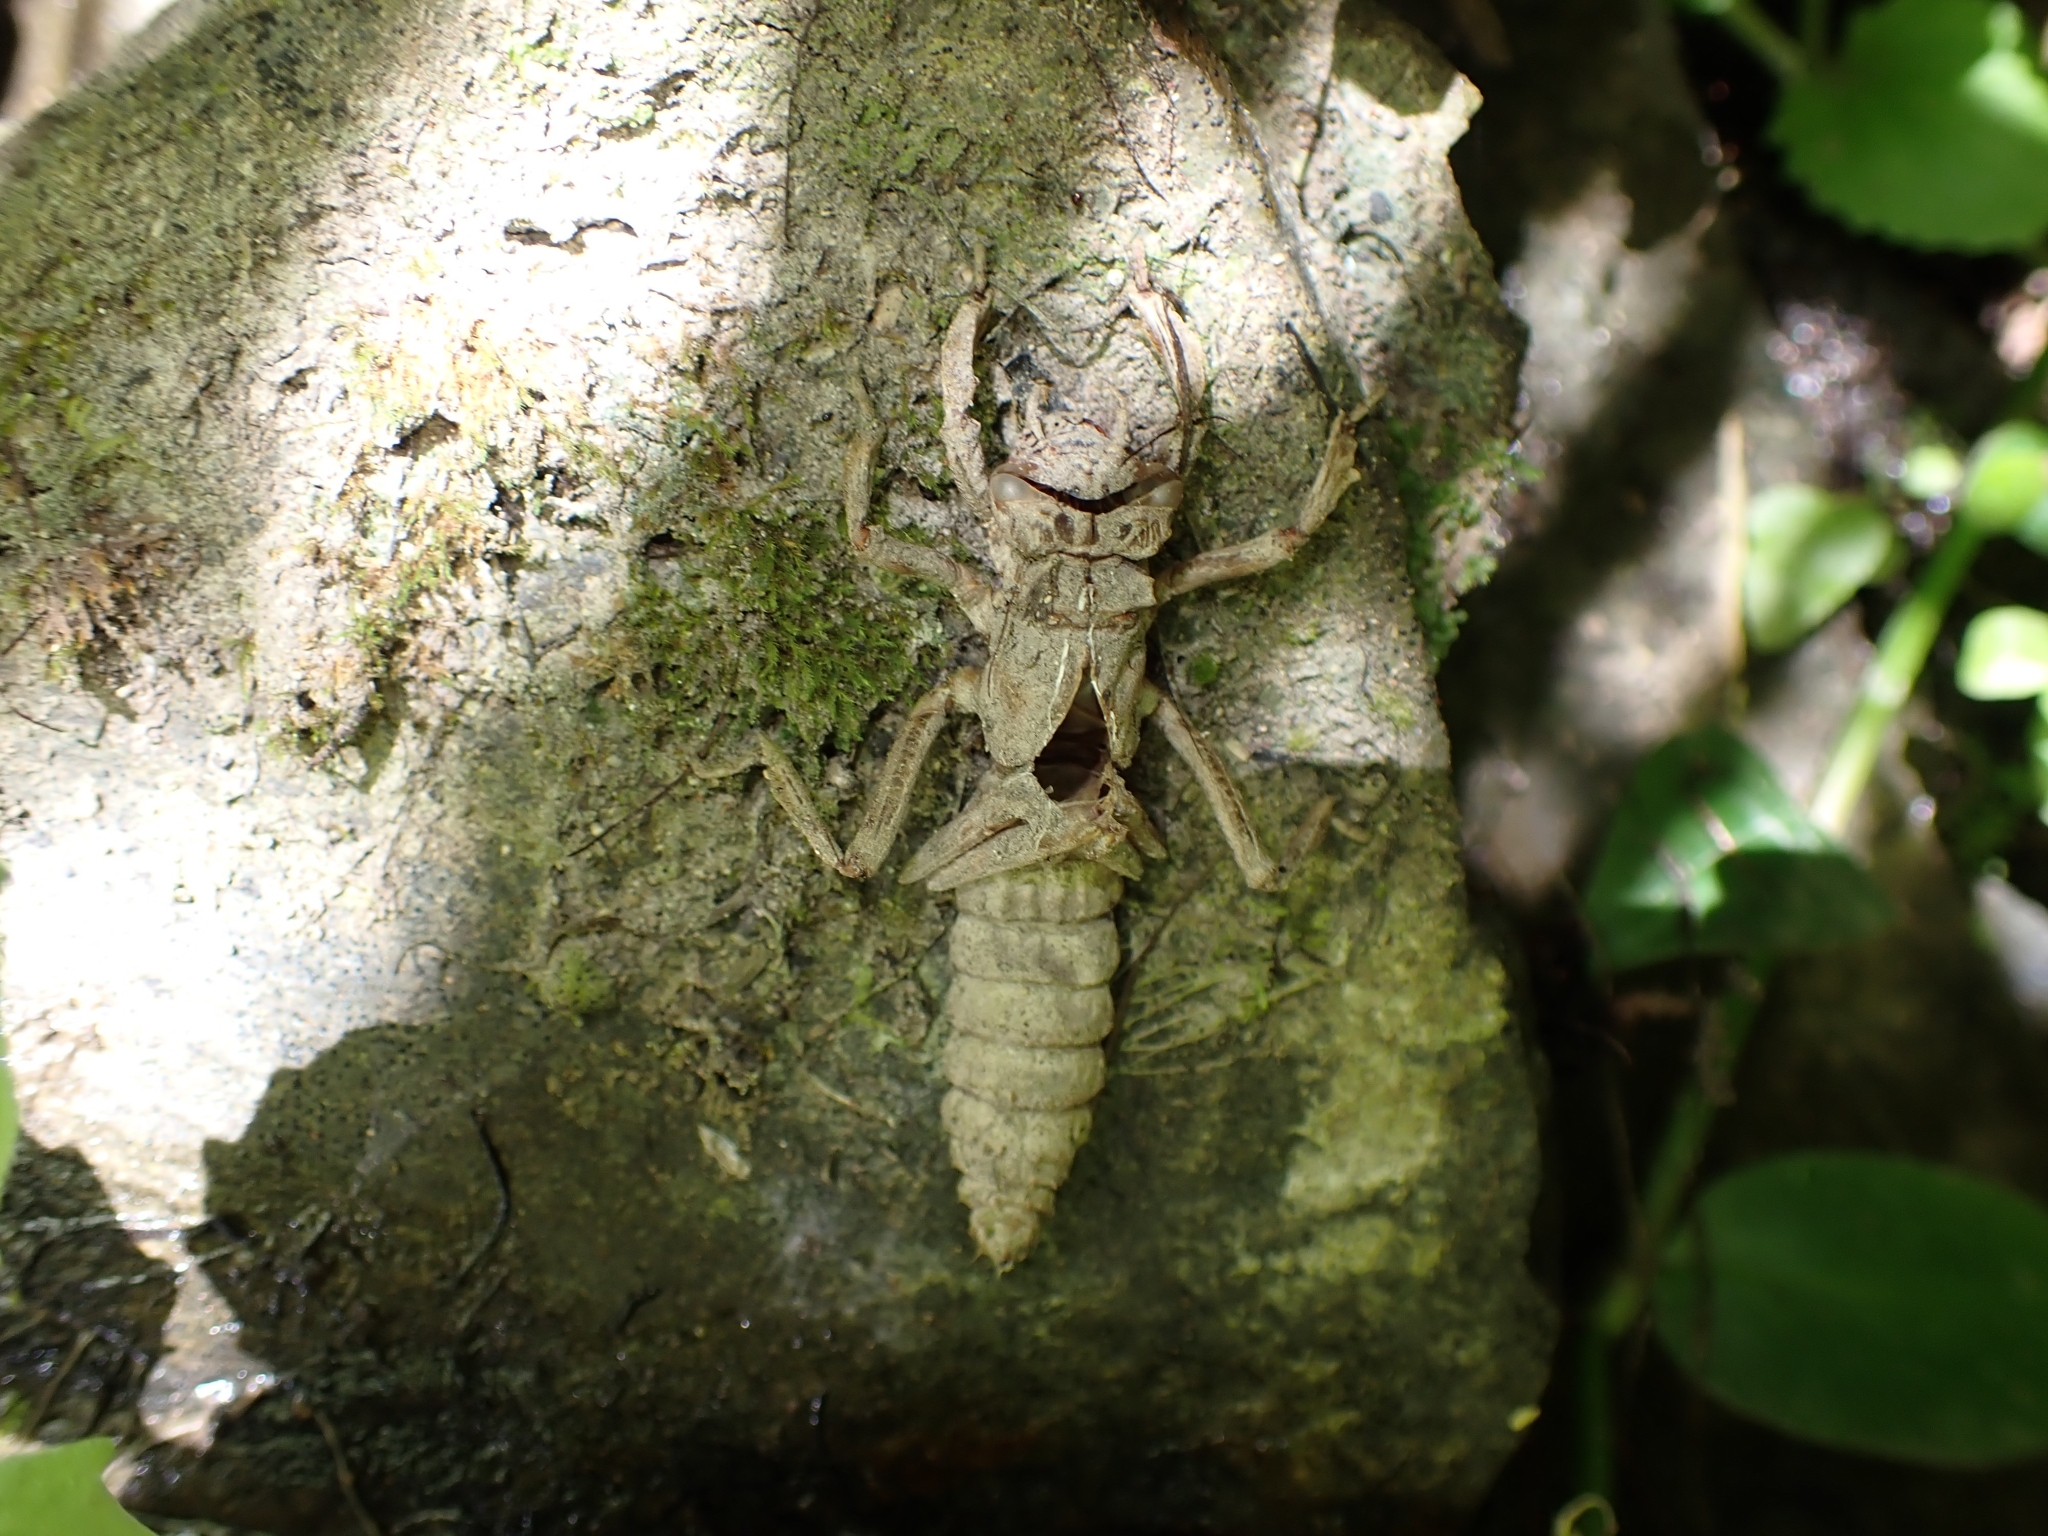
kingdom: Animalia
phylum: Arthropoda
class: Insecta
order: Odonata
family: Petaluridae
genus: Uropetala
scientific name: Uropetala carovei
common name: Bush giant dragonfly
